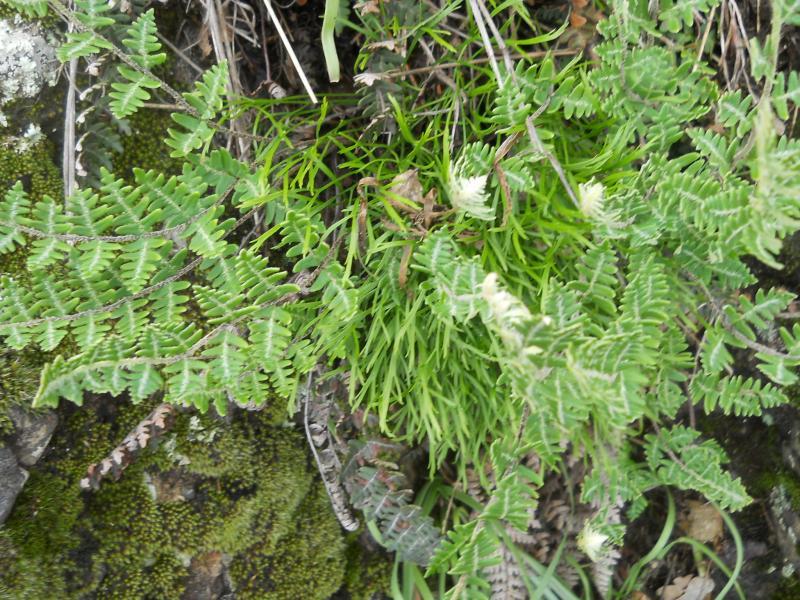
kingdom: Plantae
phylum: Tracheophyta
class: Polypodiopsida
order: Polypodiales
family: Aspleniaceae
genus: Asplenium
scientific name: Asplenium septentrionale
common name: Forked spleenwort
